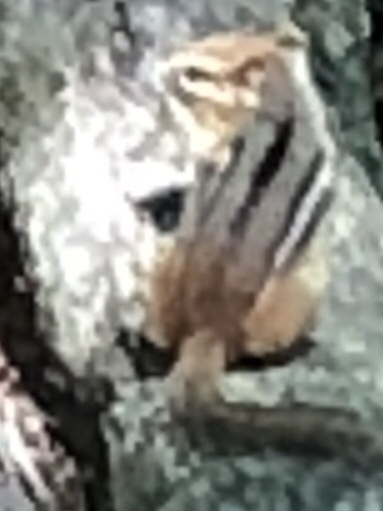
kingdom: Animalia
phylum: Chordata
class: Mammalia
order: Rodentia
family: Sciuridae
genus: Tamias
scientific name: Tamias striatus
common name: Eastern chipmunk
